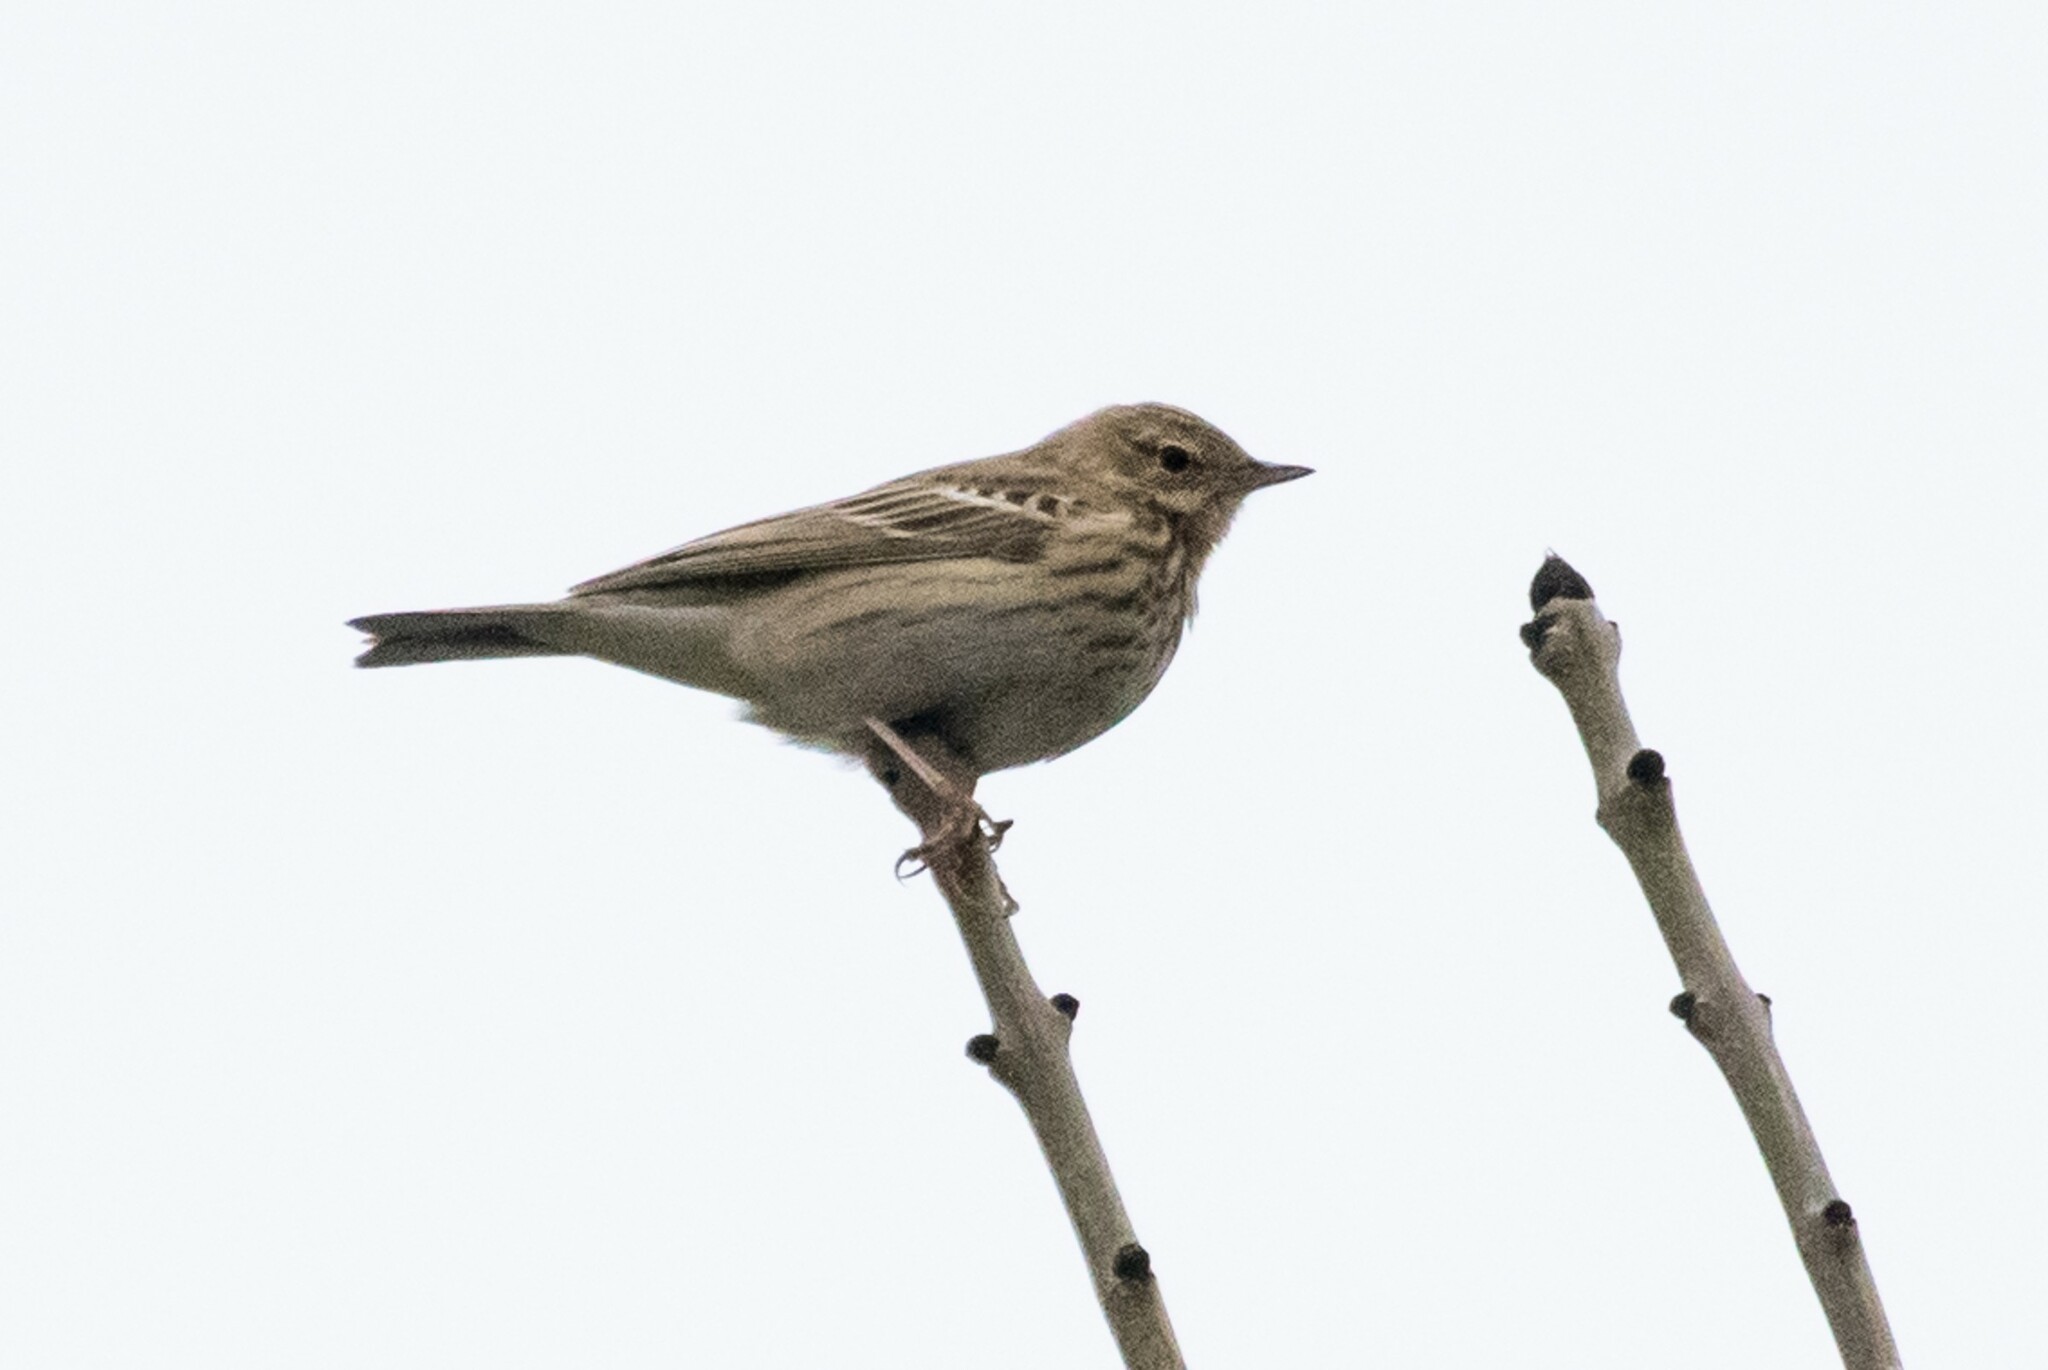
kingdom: Animalia
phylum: Chordata
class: Aves
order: Passeriformes
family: Motacillidae
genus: Anthus
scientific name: Anthus trivialis
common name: Tree pipit
